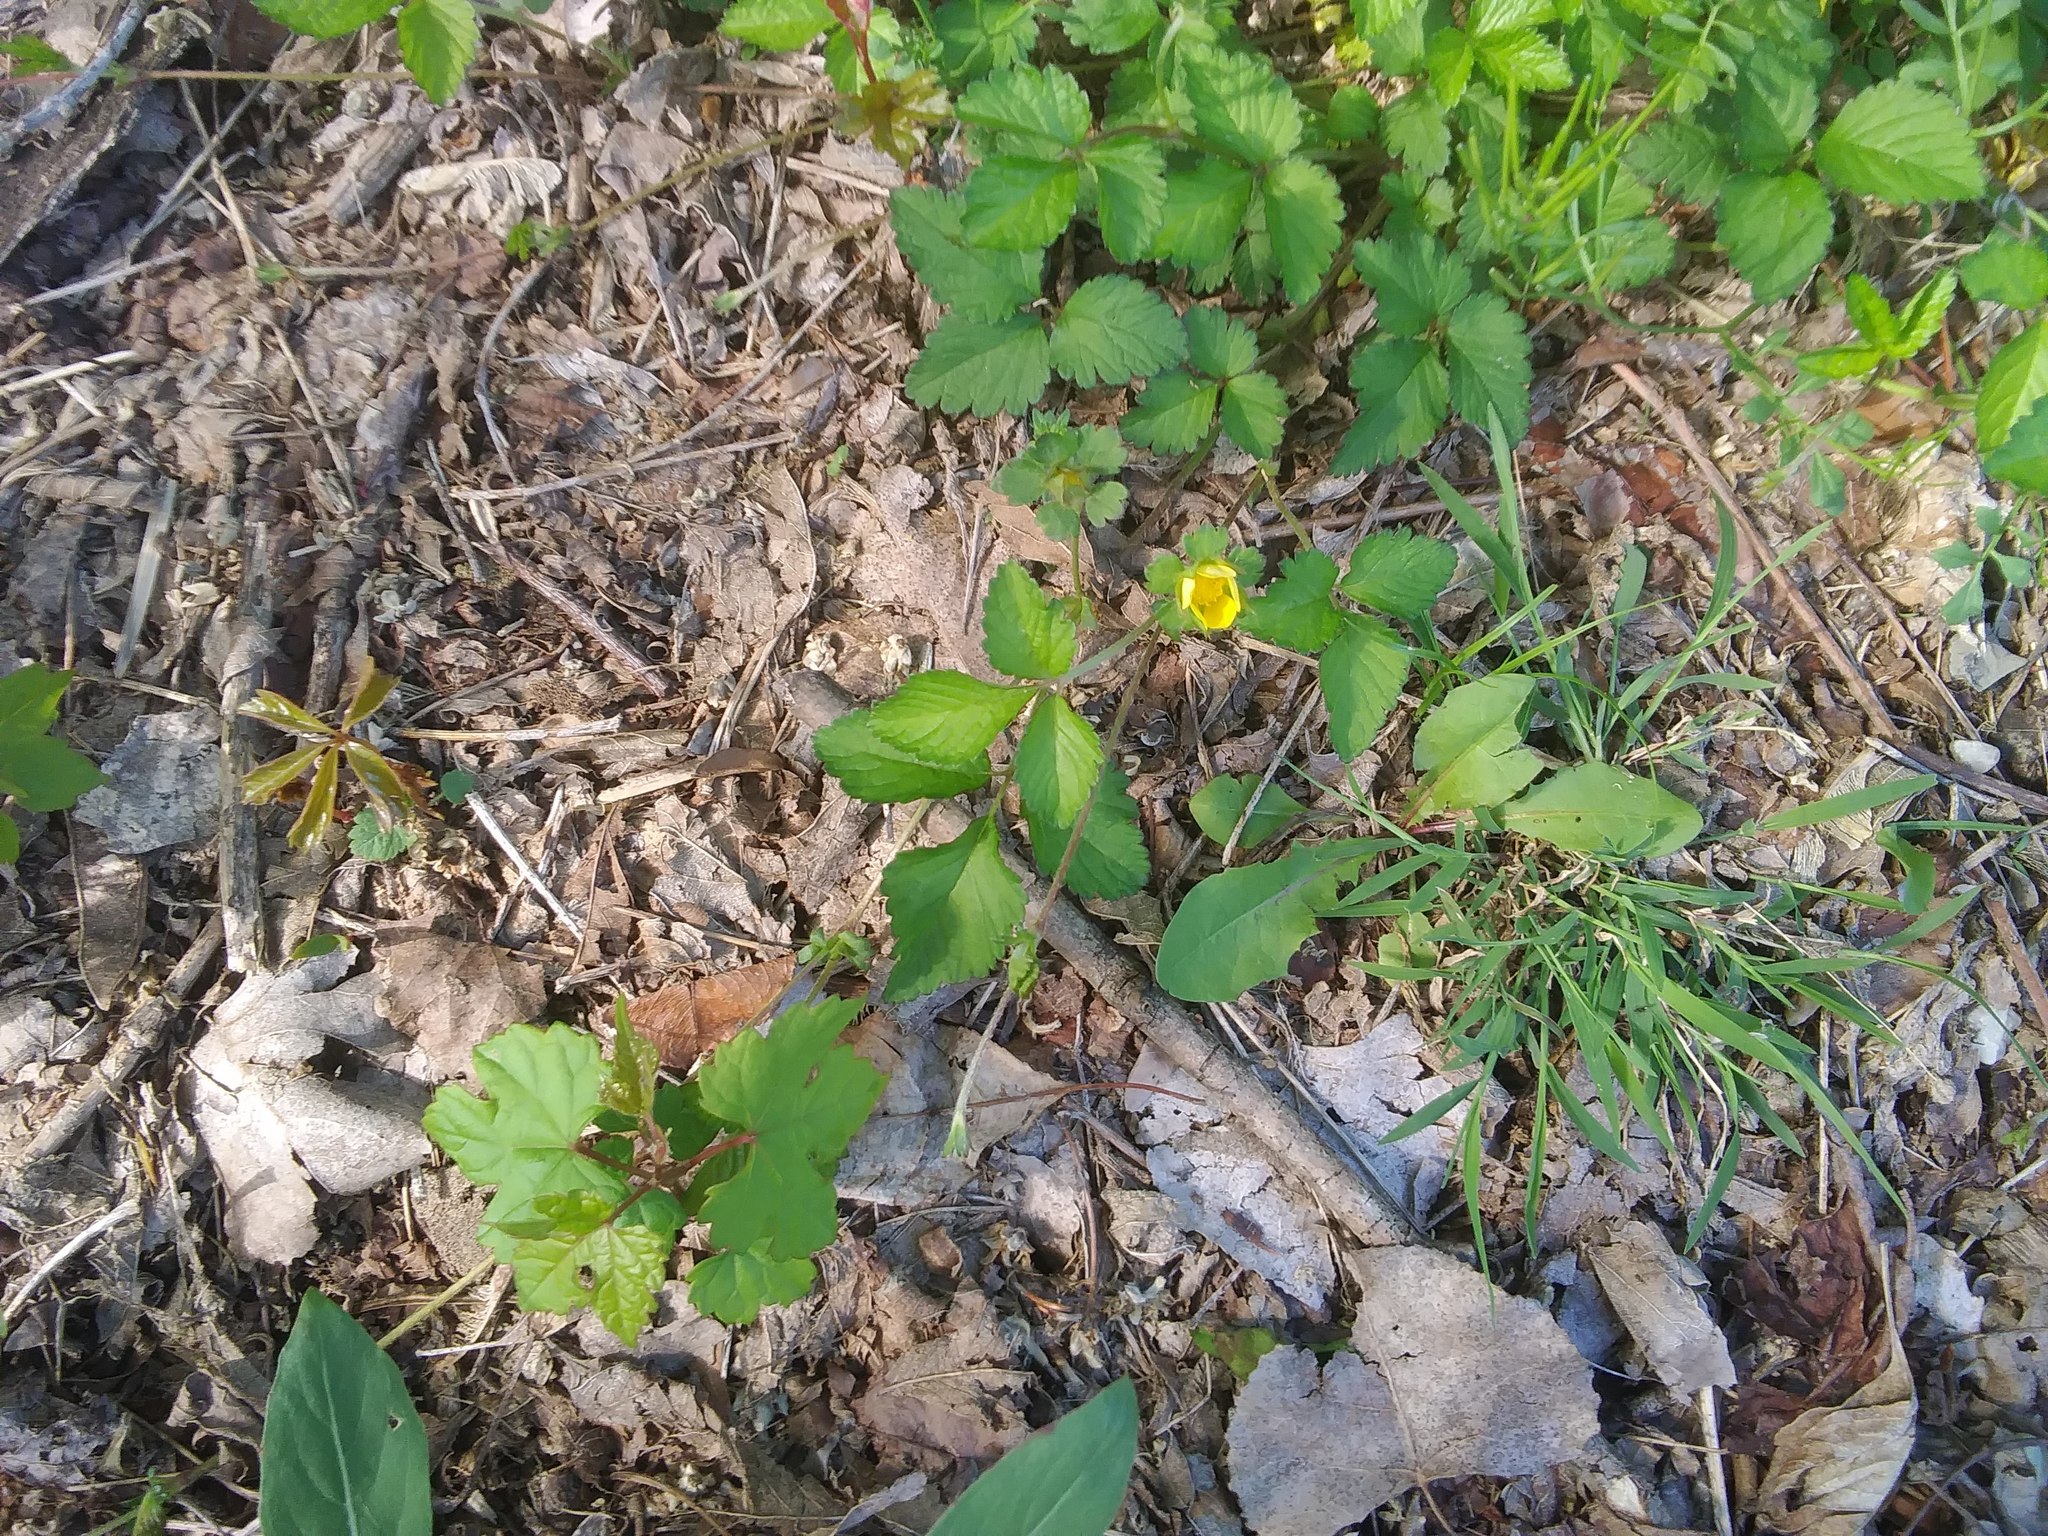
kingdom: Plantae
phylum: Tracheophyta
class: Magnoliopsida
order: Rosales
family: Rosaceae
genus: Potentilla
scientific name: Potentilla indica
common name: Yellow-flowered strawberry
